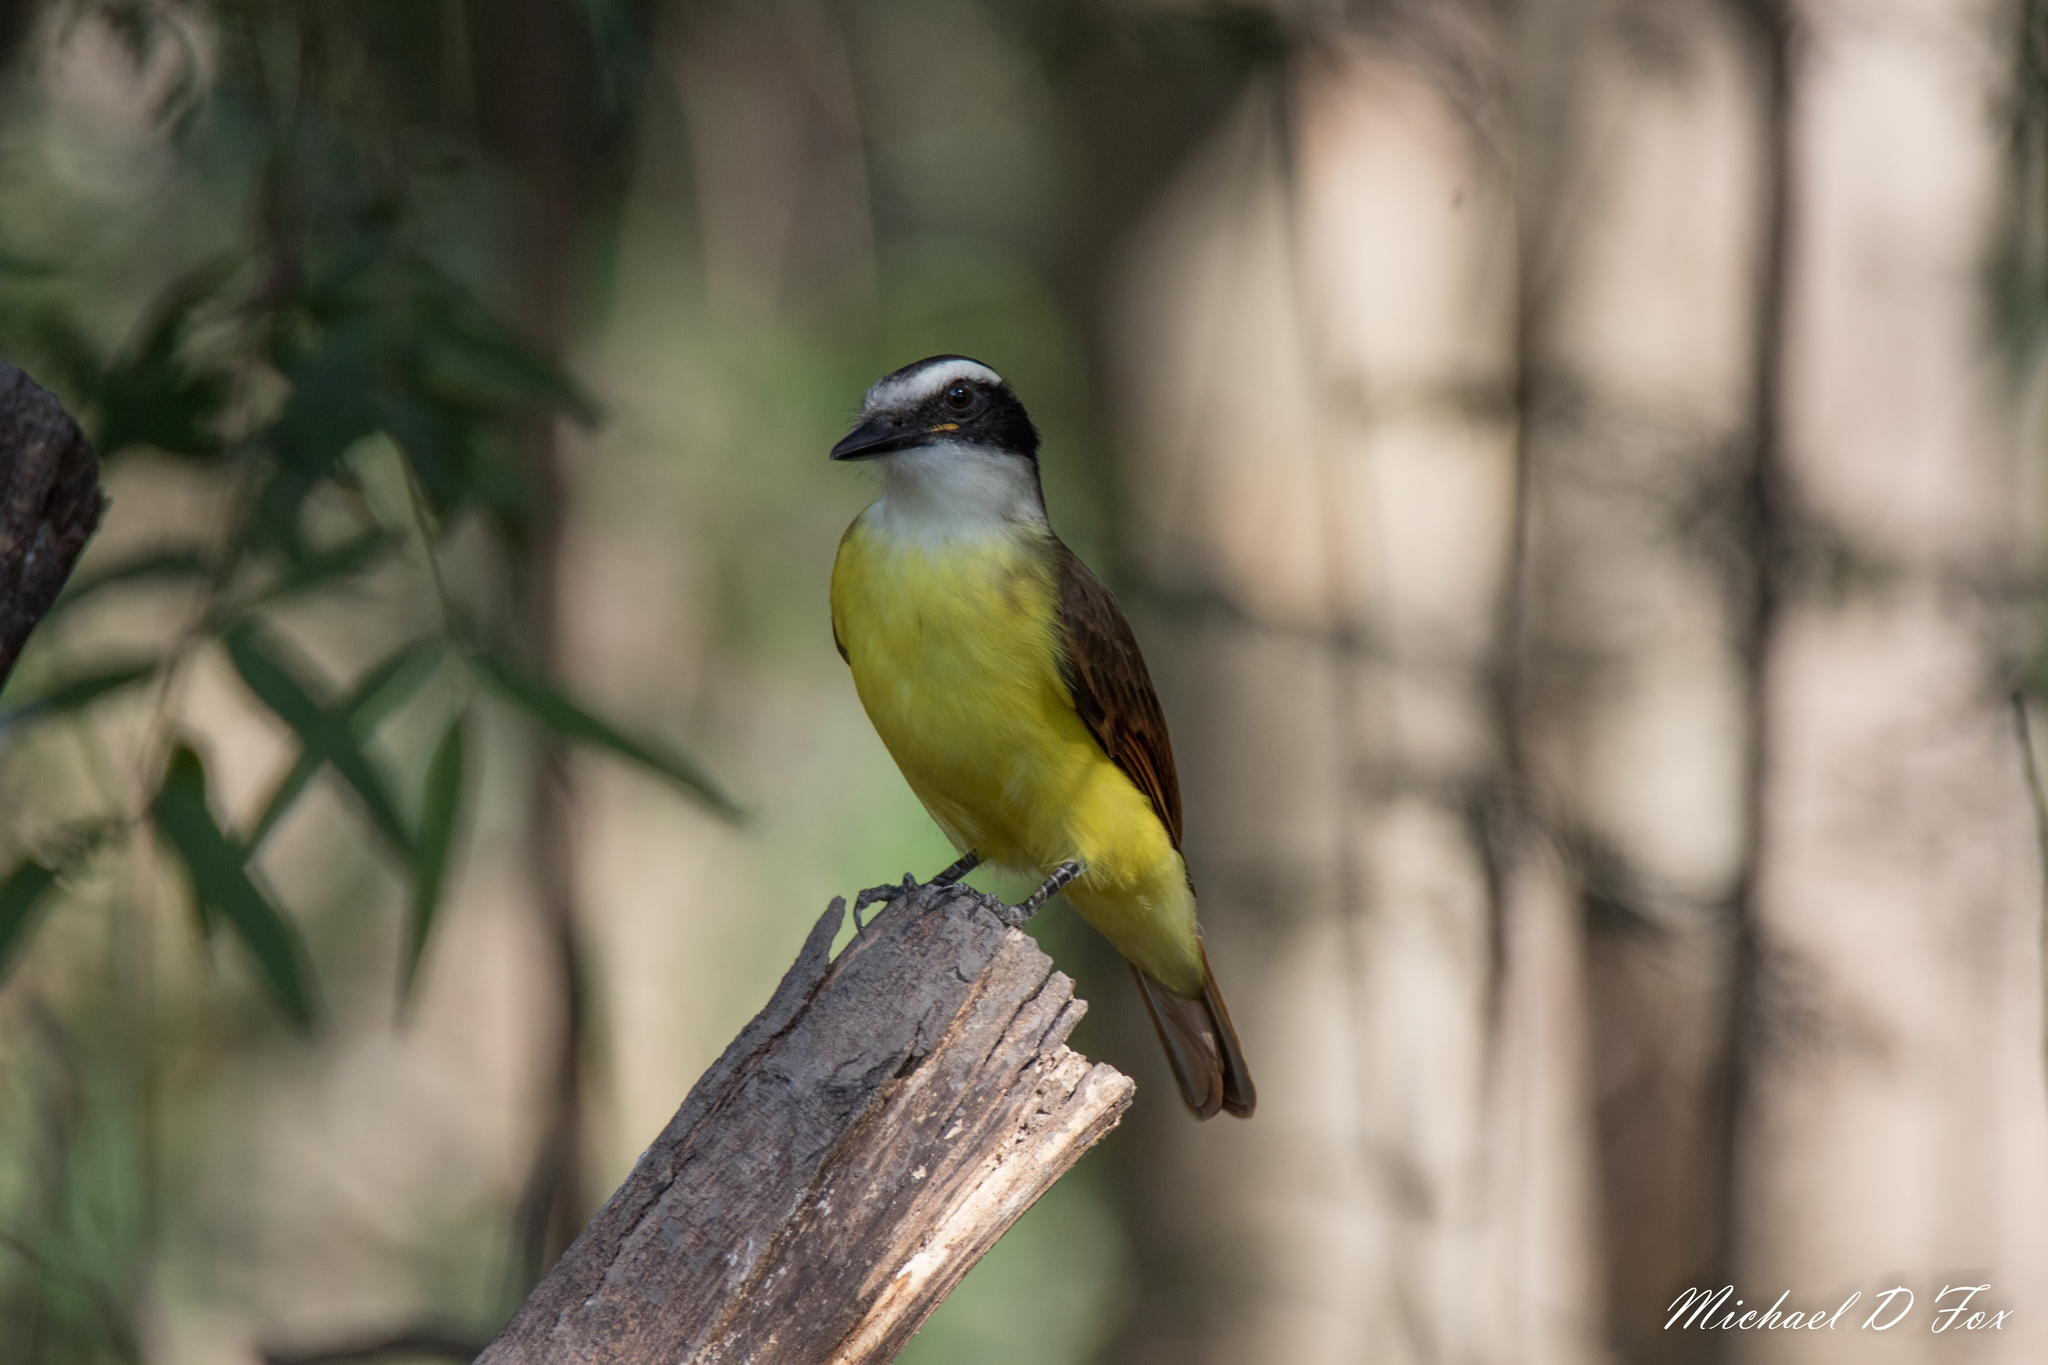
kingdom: Animalia
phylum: Chordata
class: Aves
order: Passeriformes
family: Tyrannidae
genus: Pitangus
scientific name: Pitangus sulphuratus
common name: Great kiskadee
